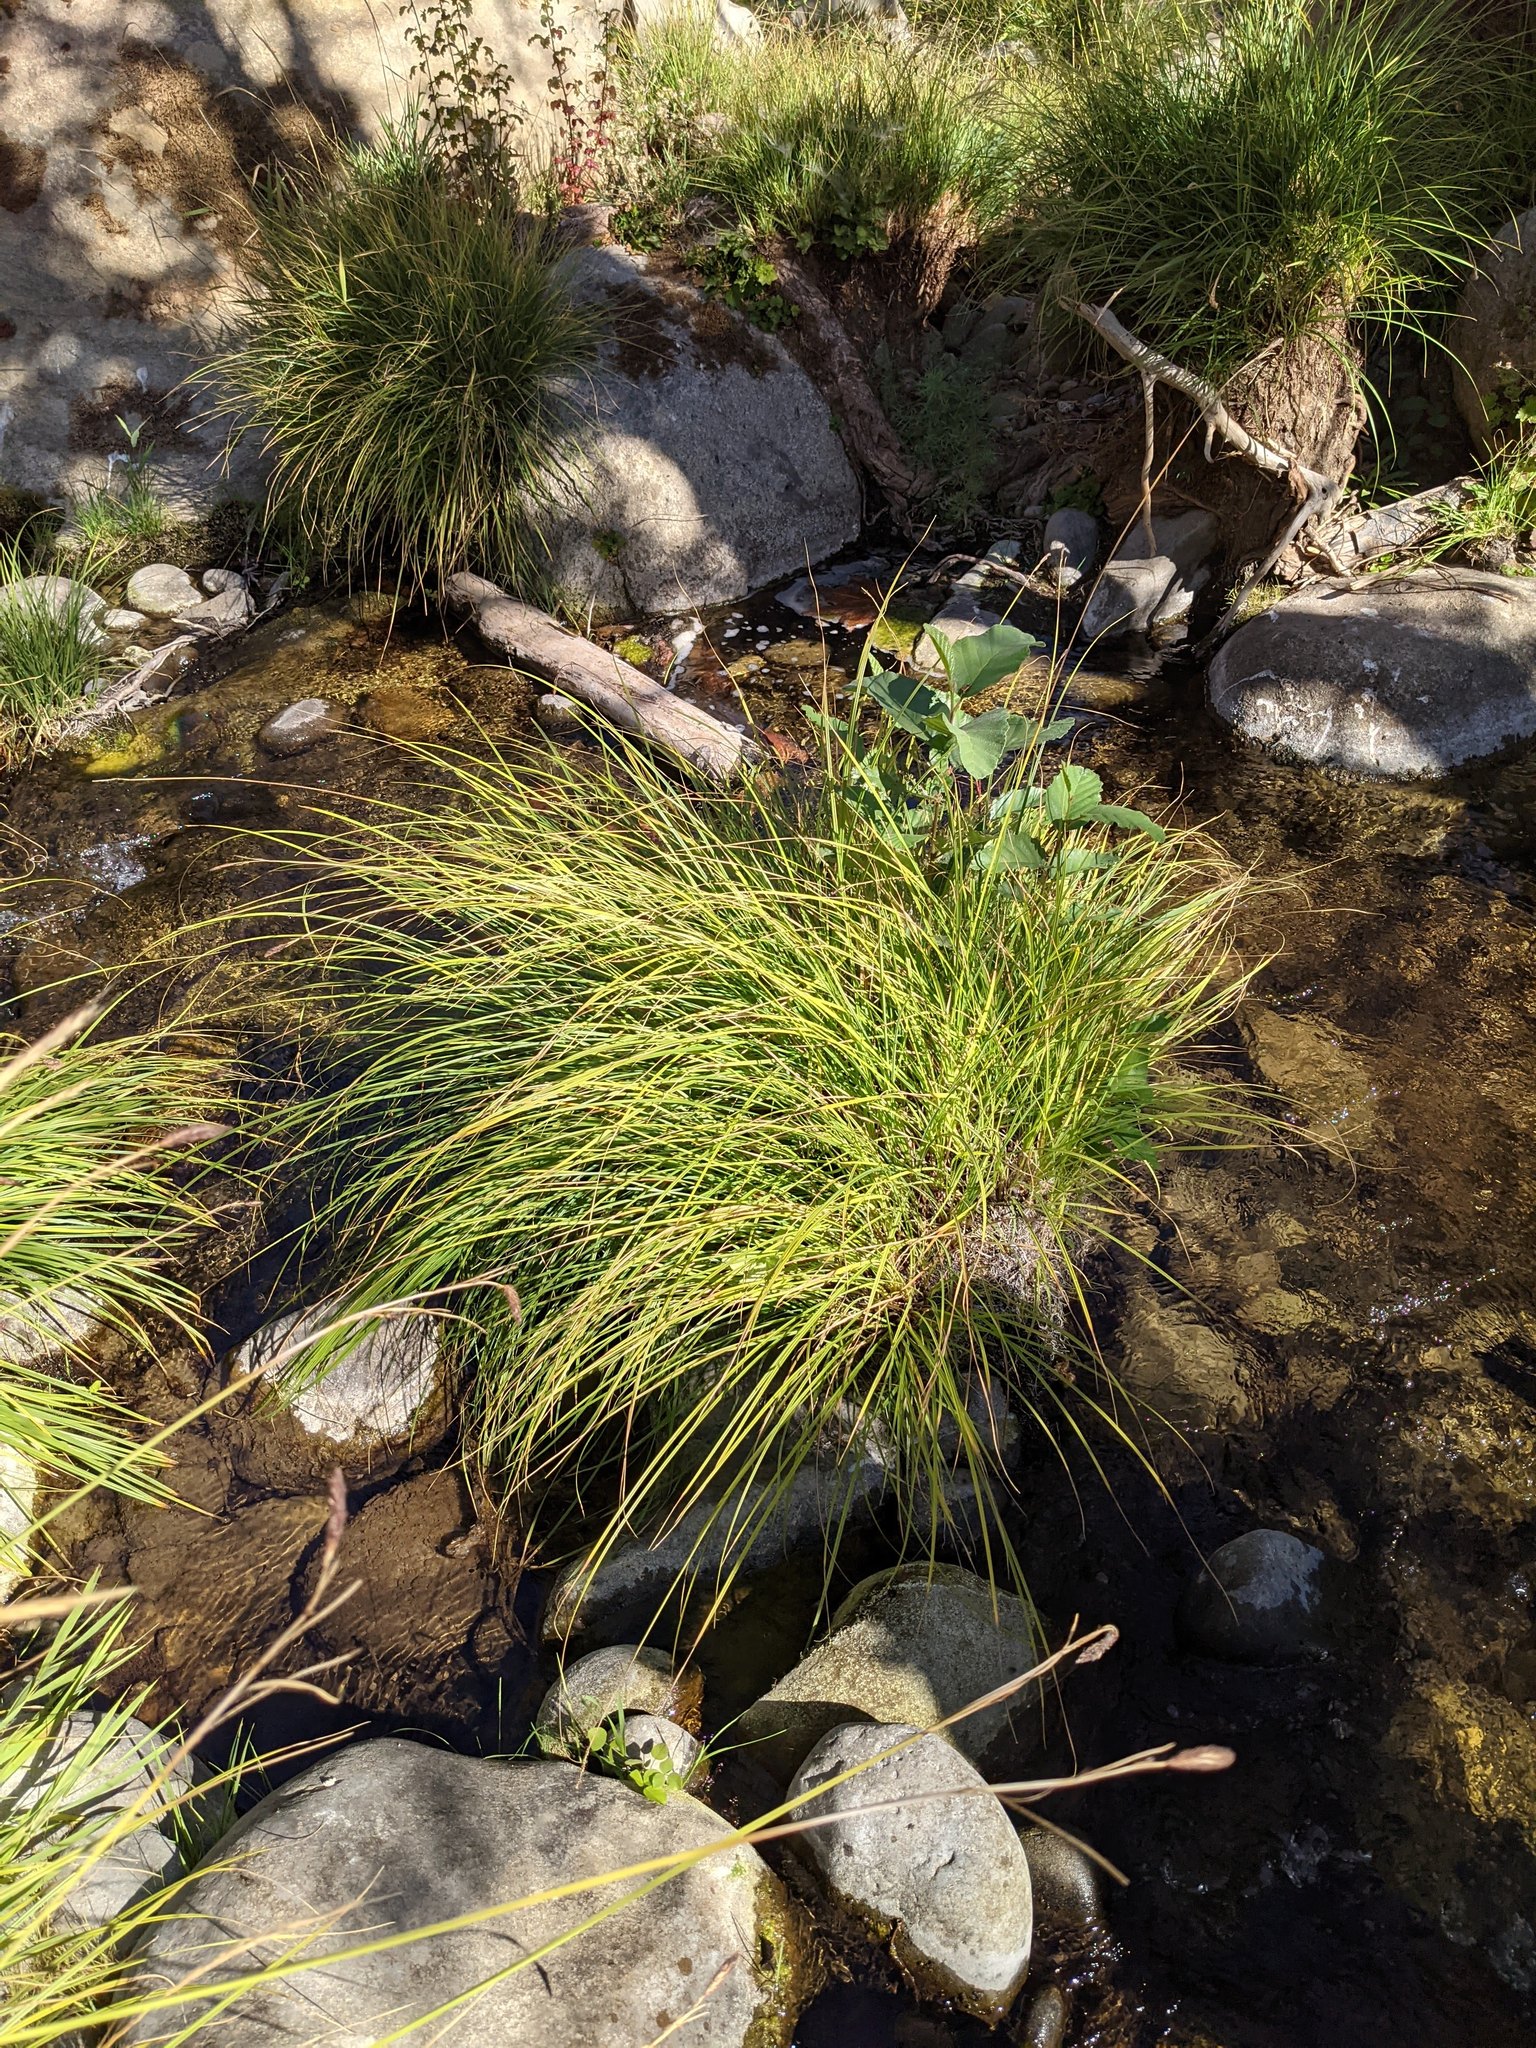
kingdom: Plantae
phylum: Tracheophyta
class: Liliopsida
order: Poales
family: Cyperaceae
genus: Carex
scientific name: Carex nudata
